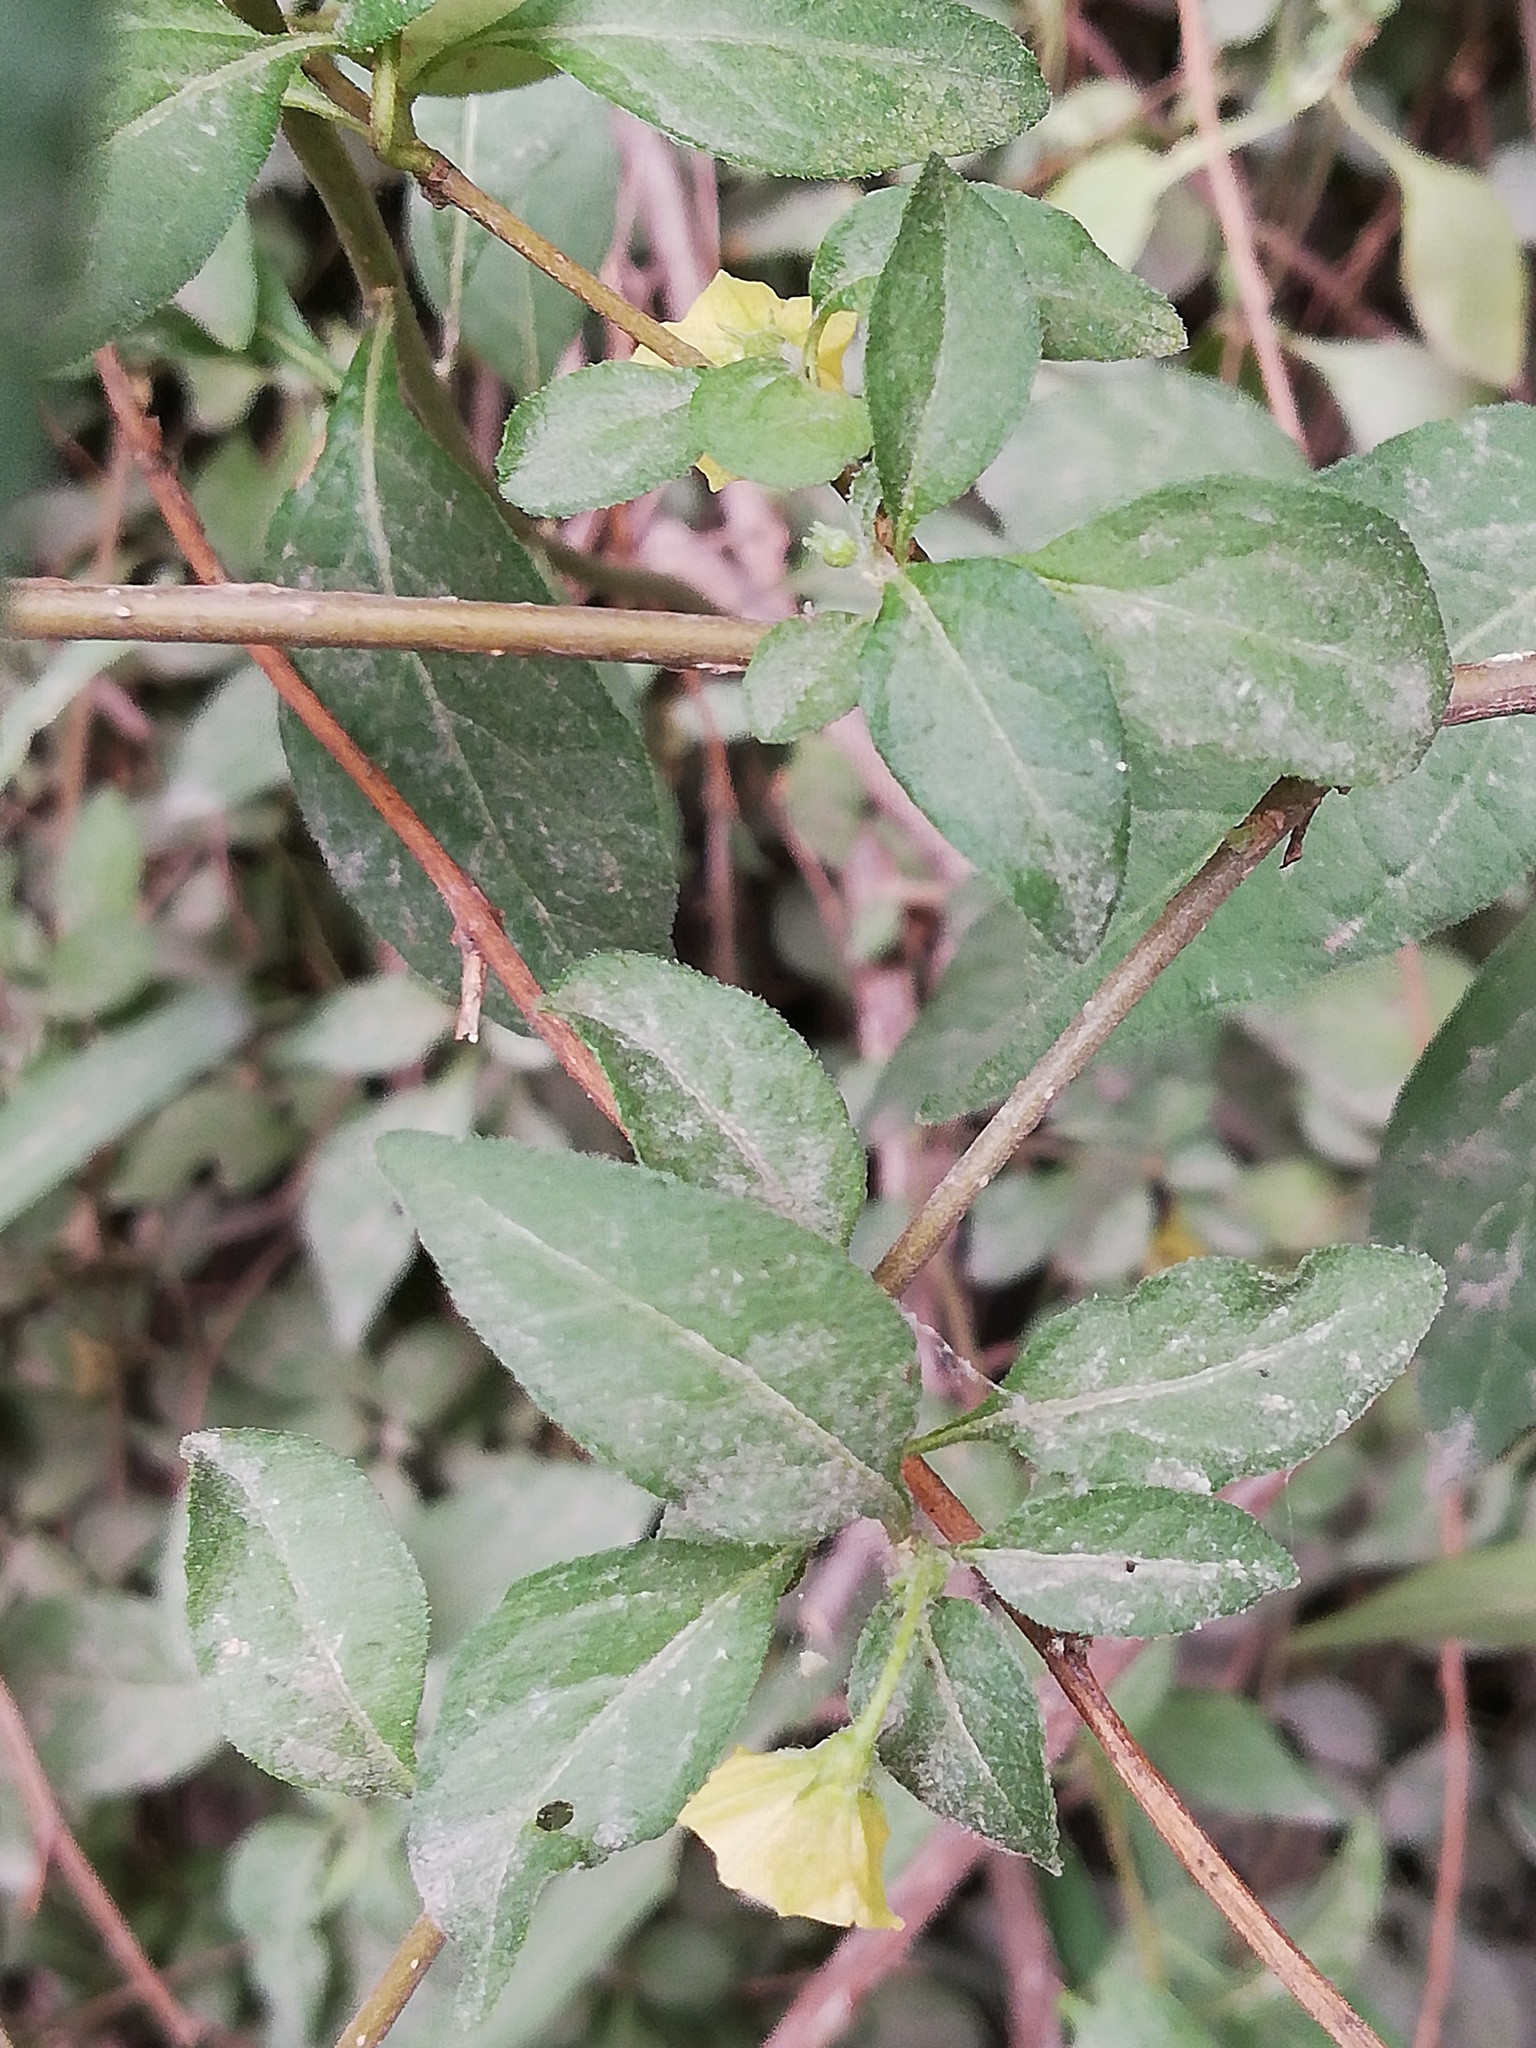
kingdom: Plantae
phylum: Tracheophyta
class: Magnoliopsida
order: Solanales
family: Solanaceae
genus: Capsicum
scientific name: Capsicum rhomboideum
